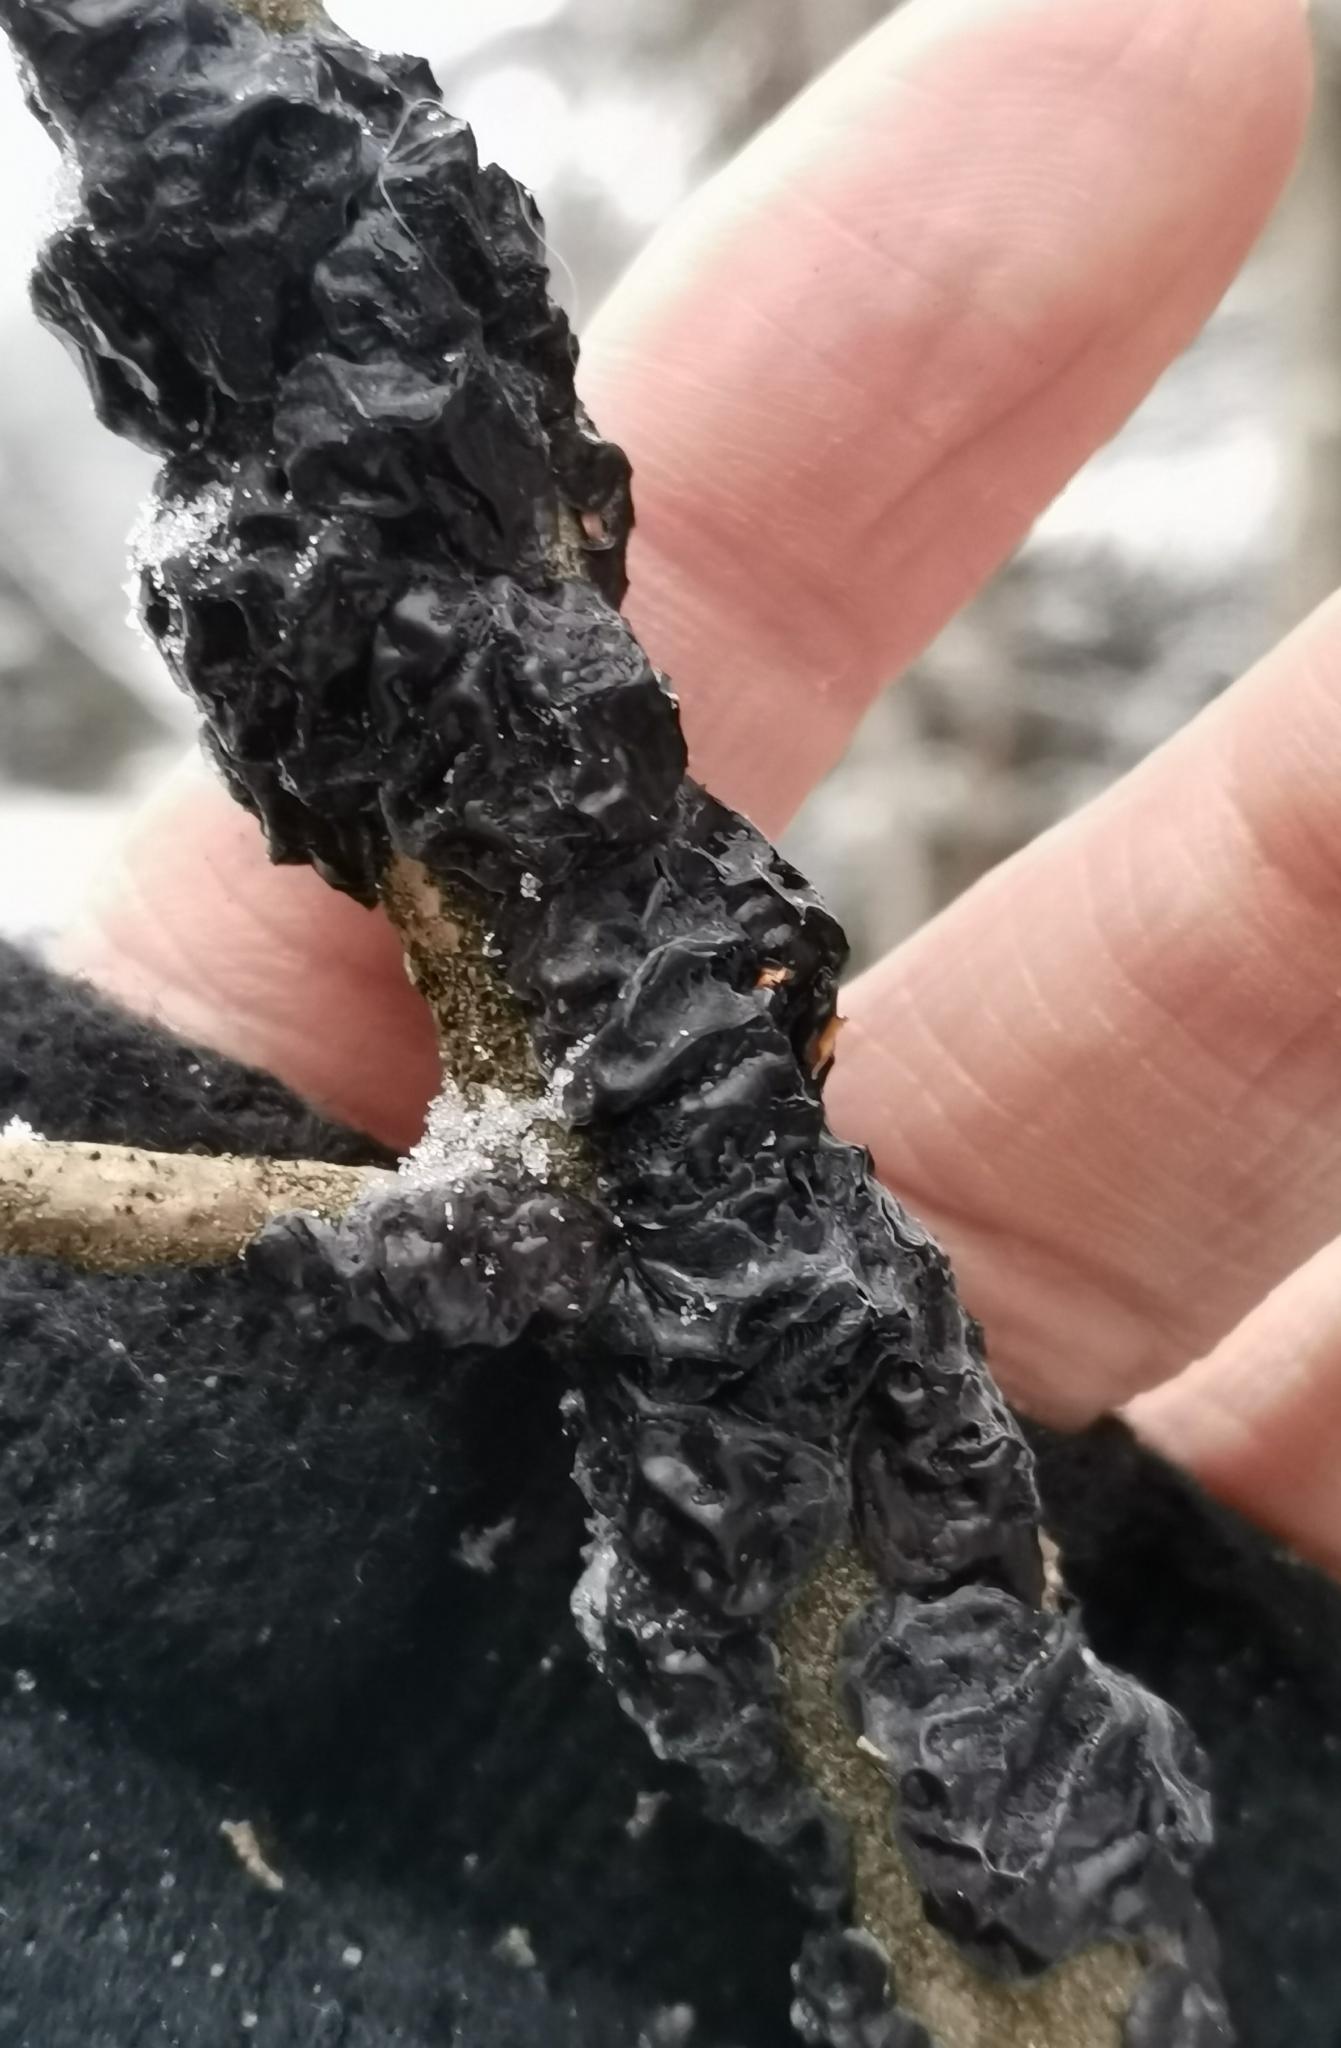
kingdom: Fungi
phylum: Basidiomycota
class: Agaricomycetes
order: Auriculariales
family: Auriculariaceae
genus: Exidia
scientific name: Exidia nigricans
